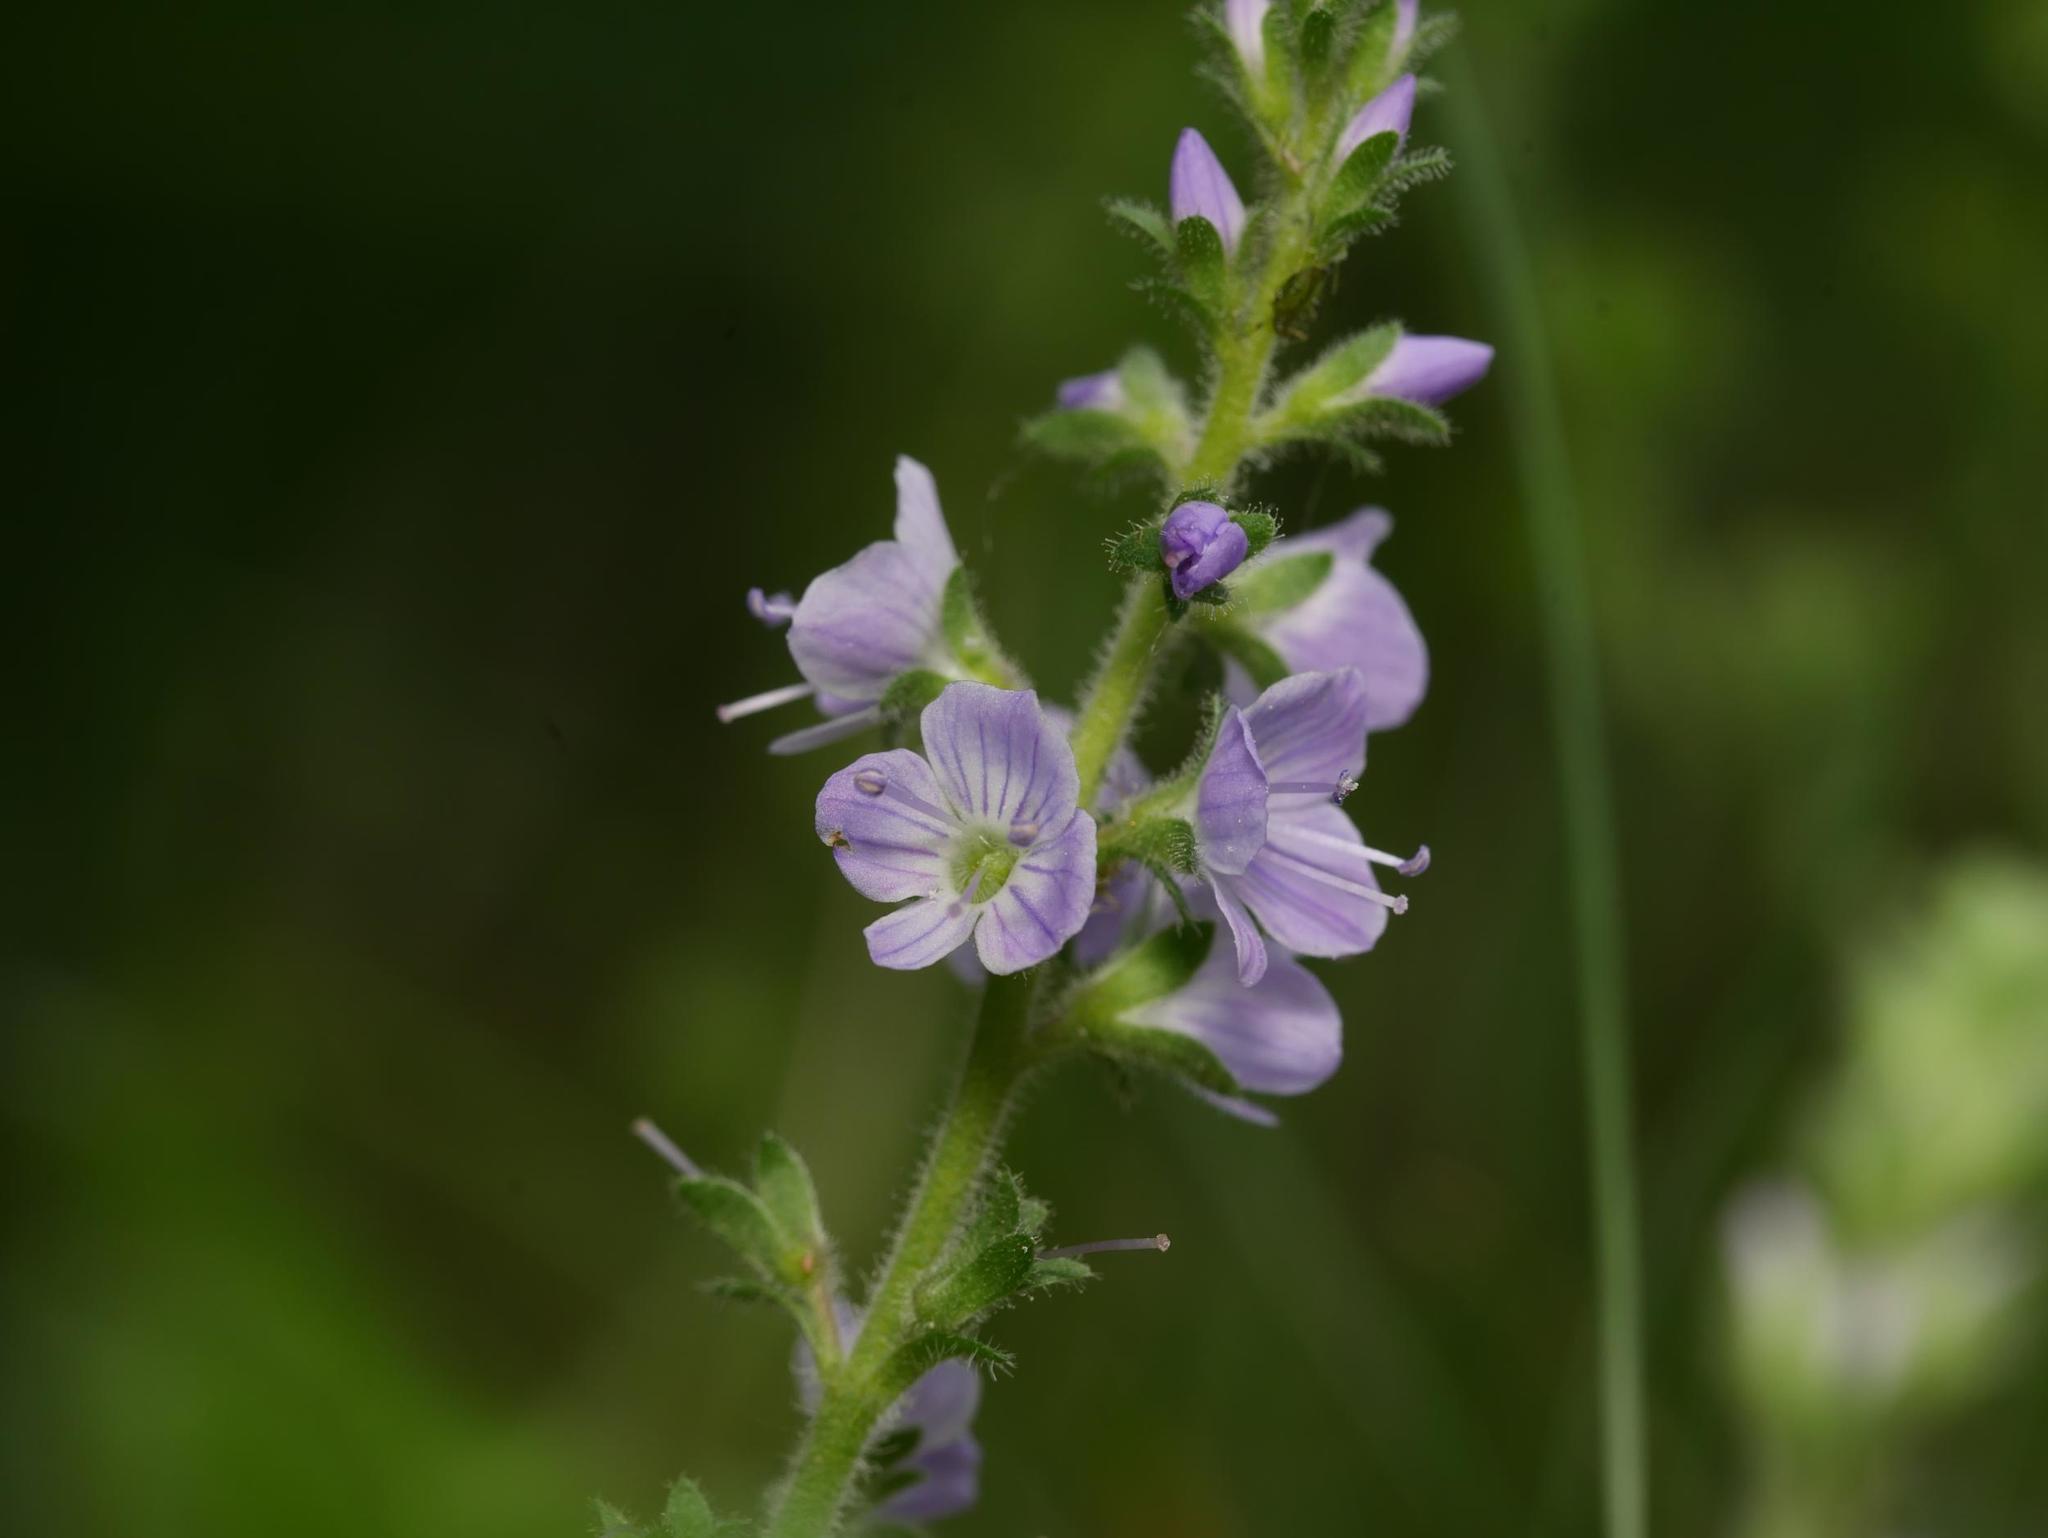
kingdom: Plantae
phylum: Tracheophyta
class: Magnoliopsida
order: Lamiales
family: Plantaginaceae
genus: Veronica
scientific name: Veronica officinalis
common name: Common speedwell
